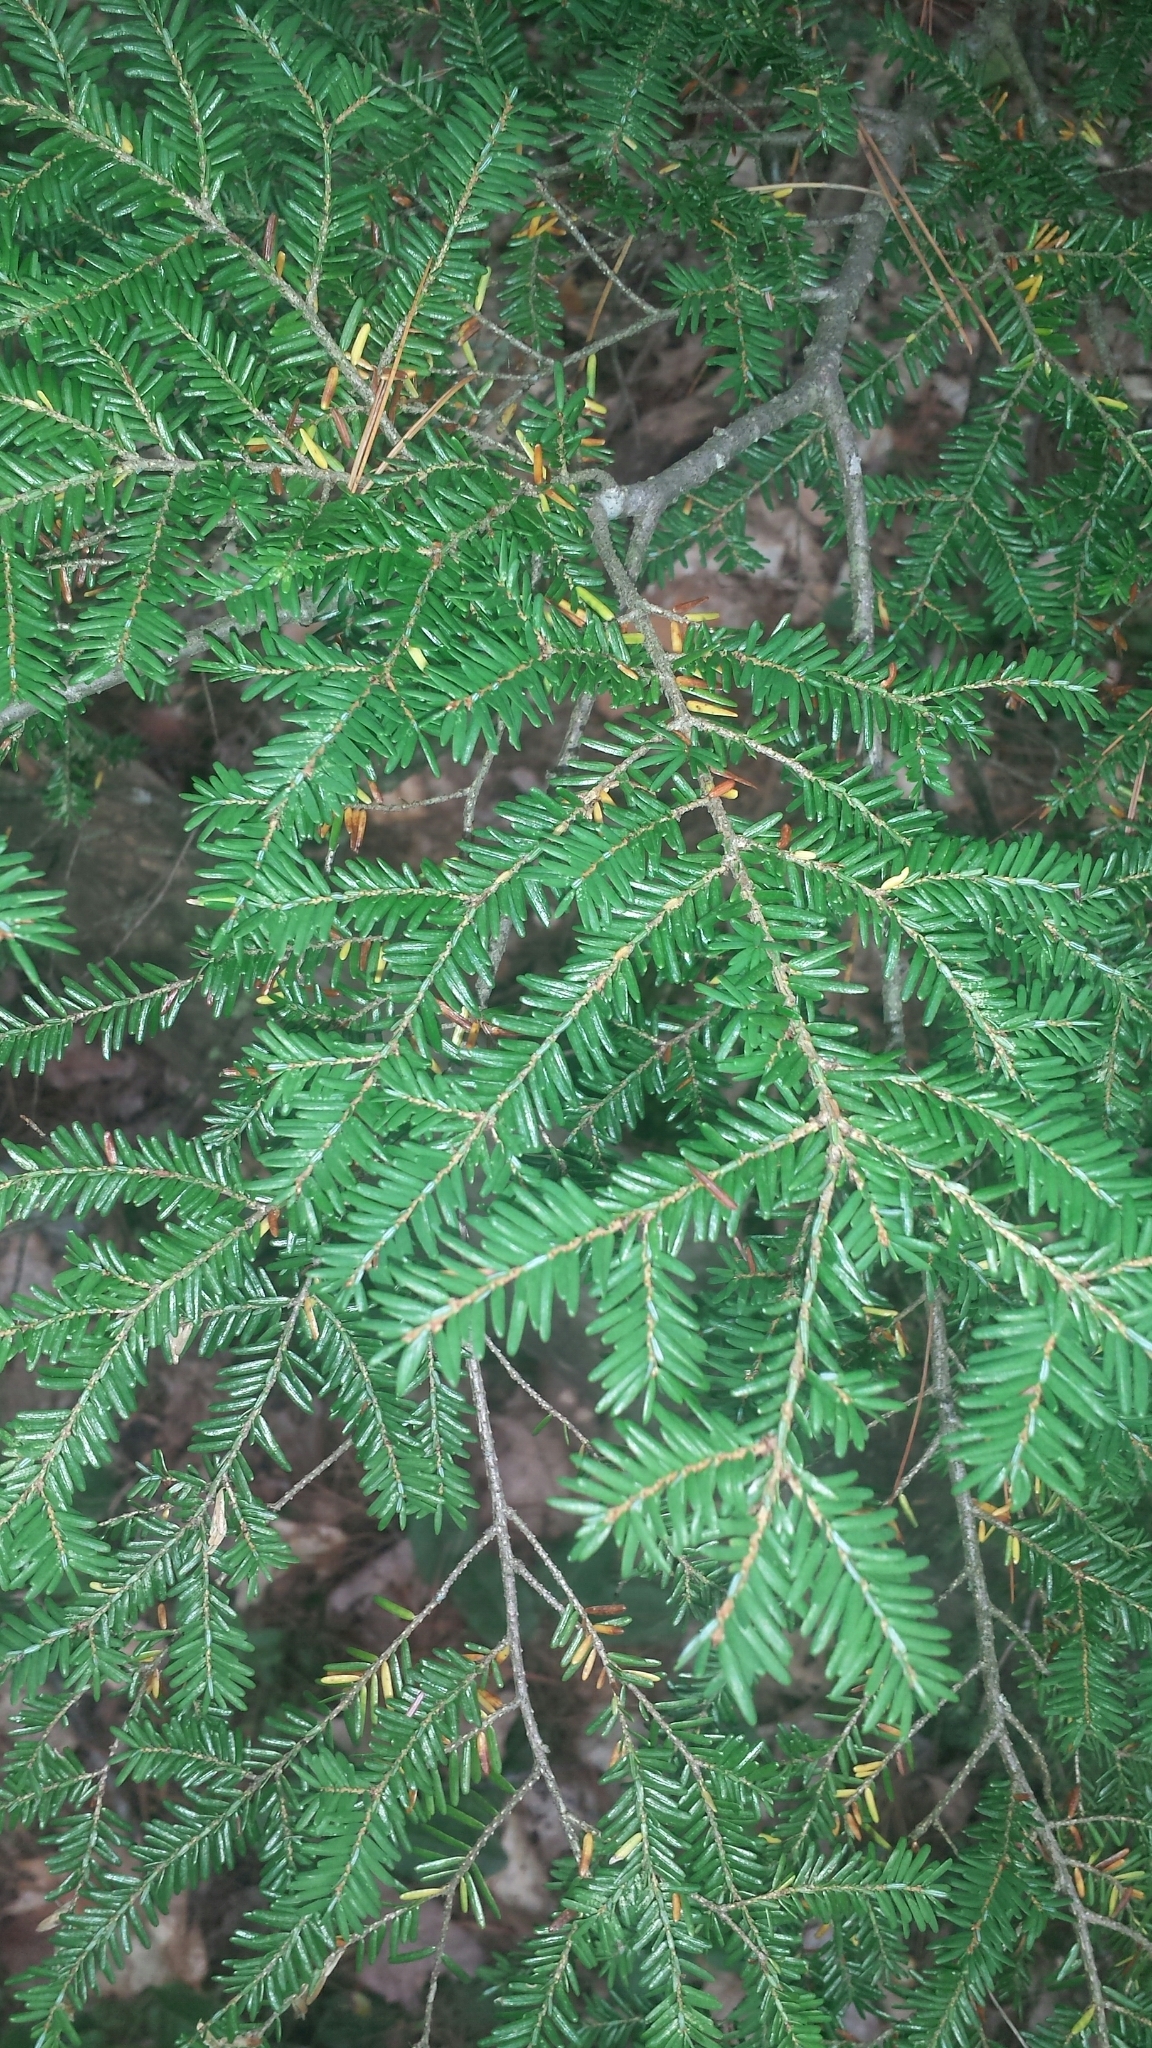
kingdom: Plantae
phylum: Tracheophyta
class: Pinopsida
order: Pinales
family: Pinaceae
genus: Tsuga
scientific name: Tsuga canadensis
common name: Eastern hemlock
